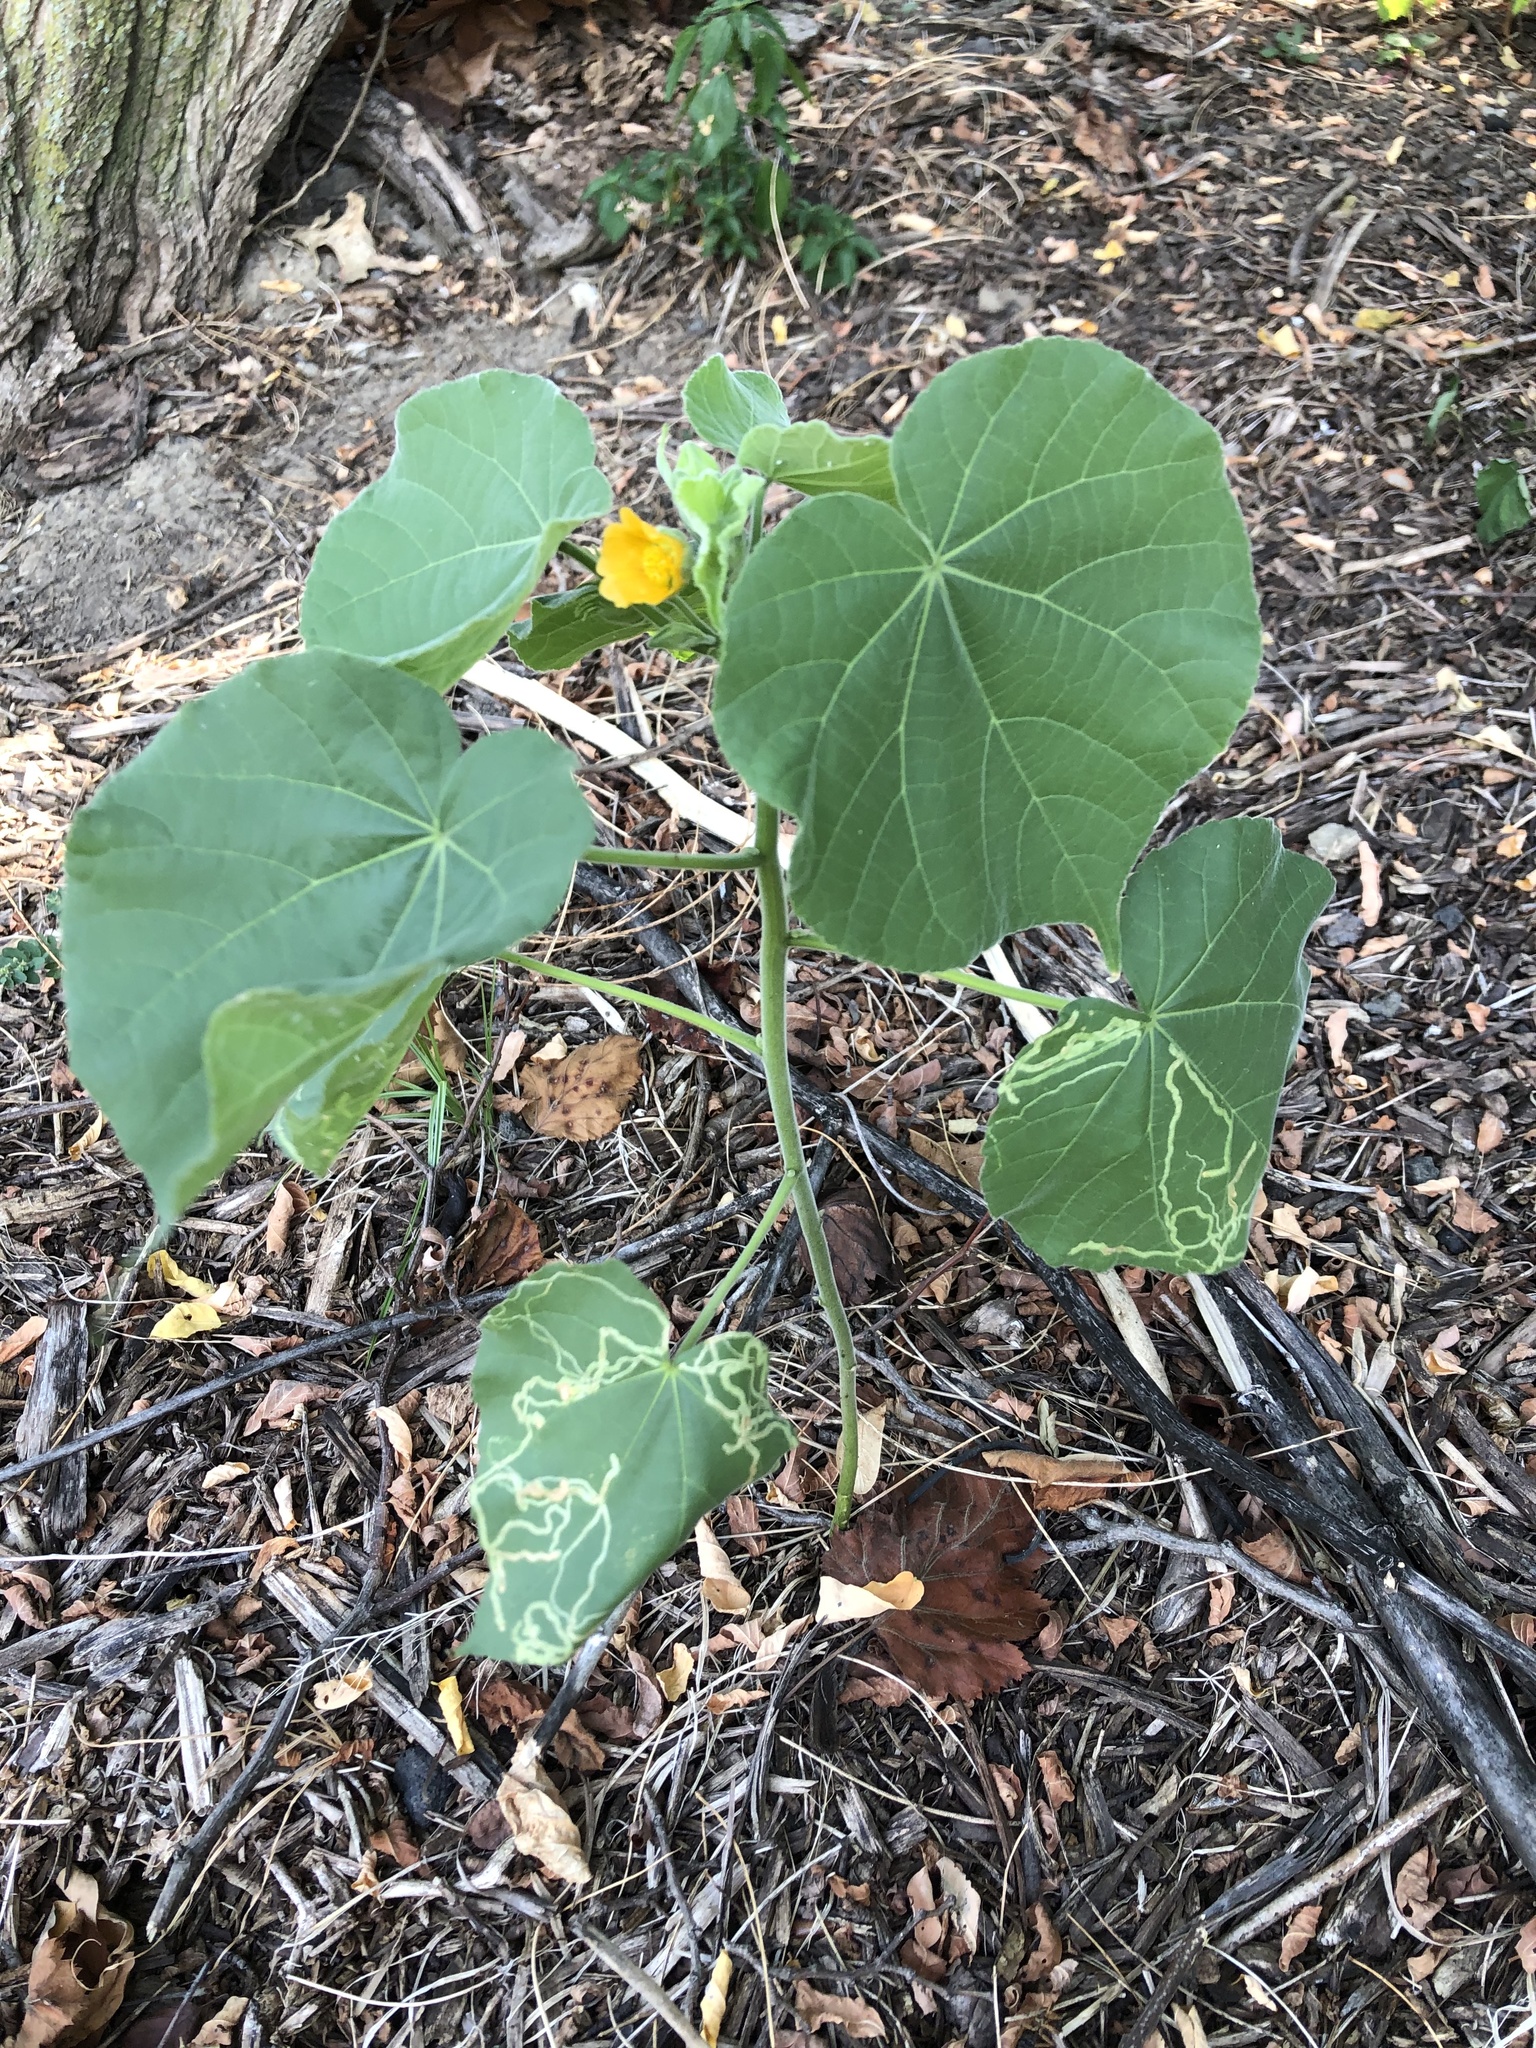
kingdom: Plantae
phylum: Tracheophyta
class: Magnoliopsida
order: Malvales
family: Malvaceae
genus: Abutilon
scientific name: Abutilon theophrasti
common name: Velvetleaf
